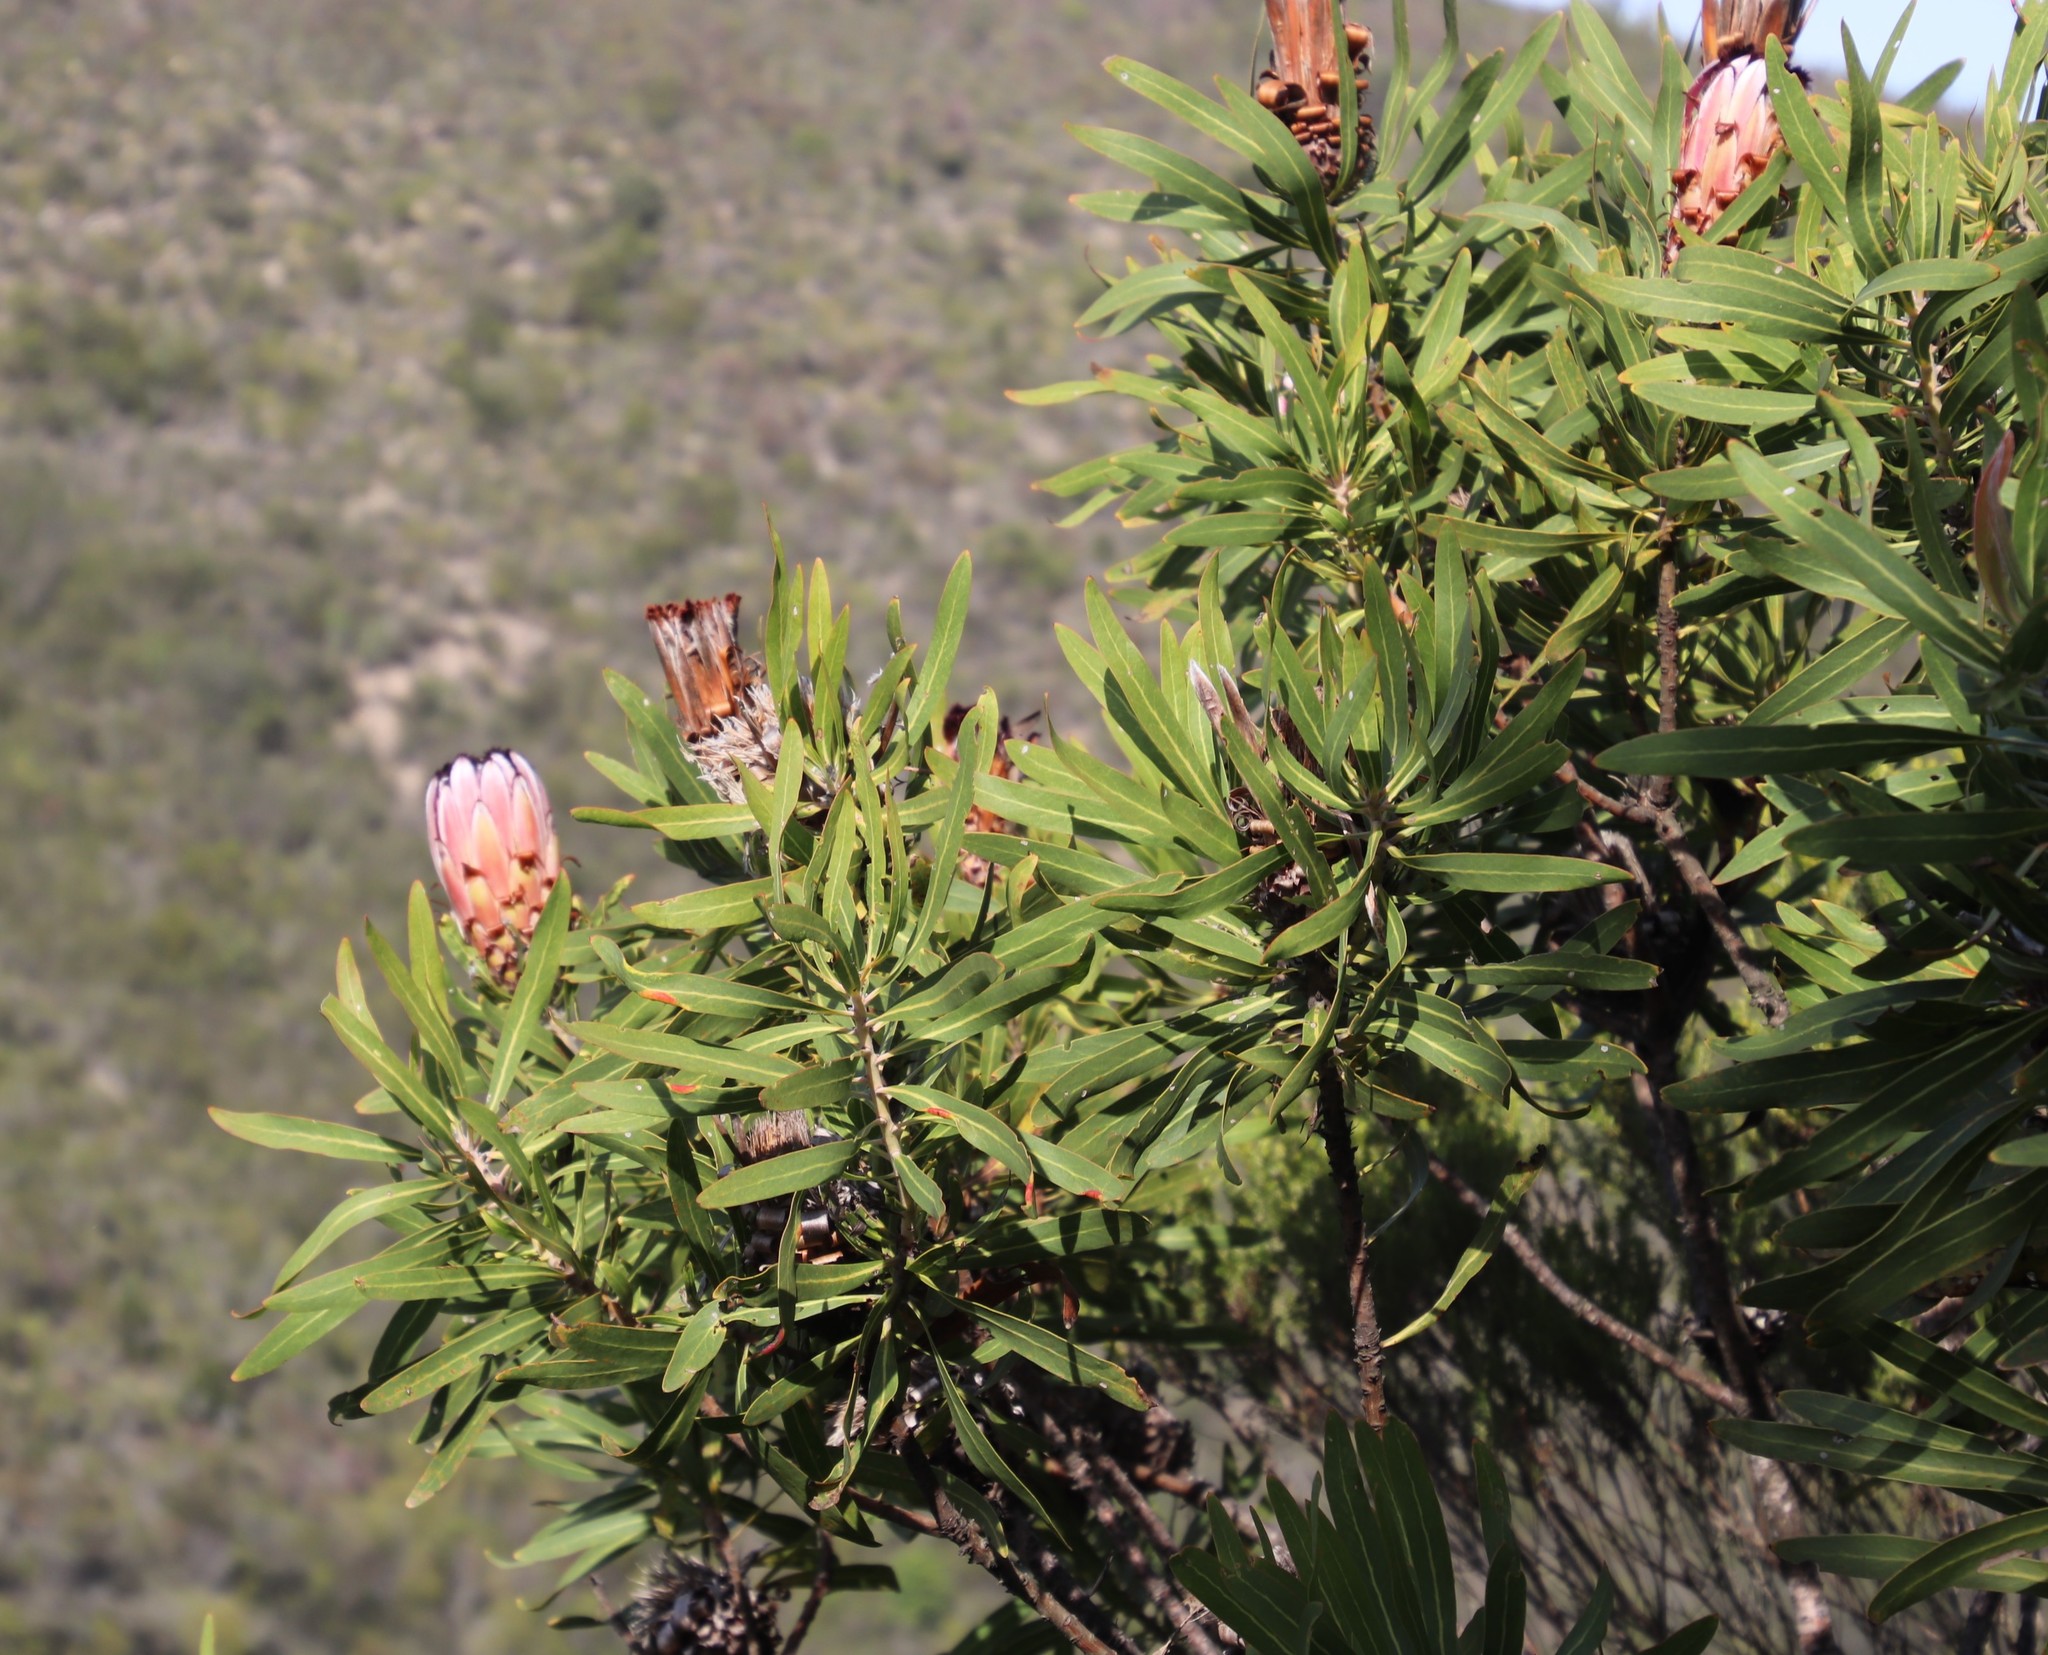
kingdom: Plantae
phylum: Tracheophyta
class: Magnoliopsida
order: Proteales
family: Proteaceae
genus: Protea
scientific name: Protea neriifolia
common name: Blue sugarbush
